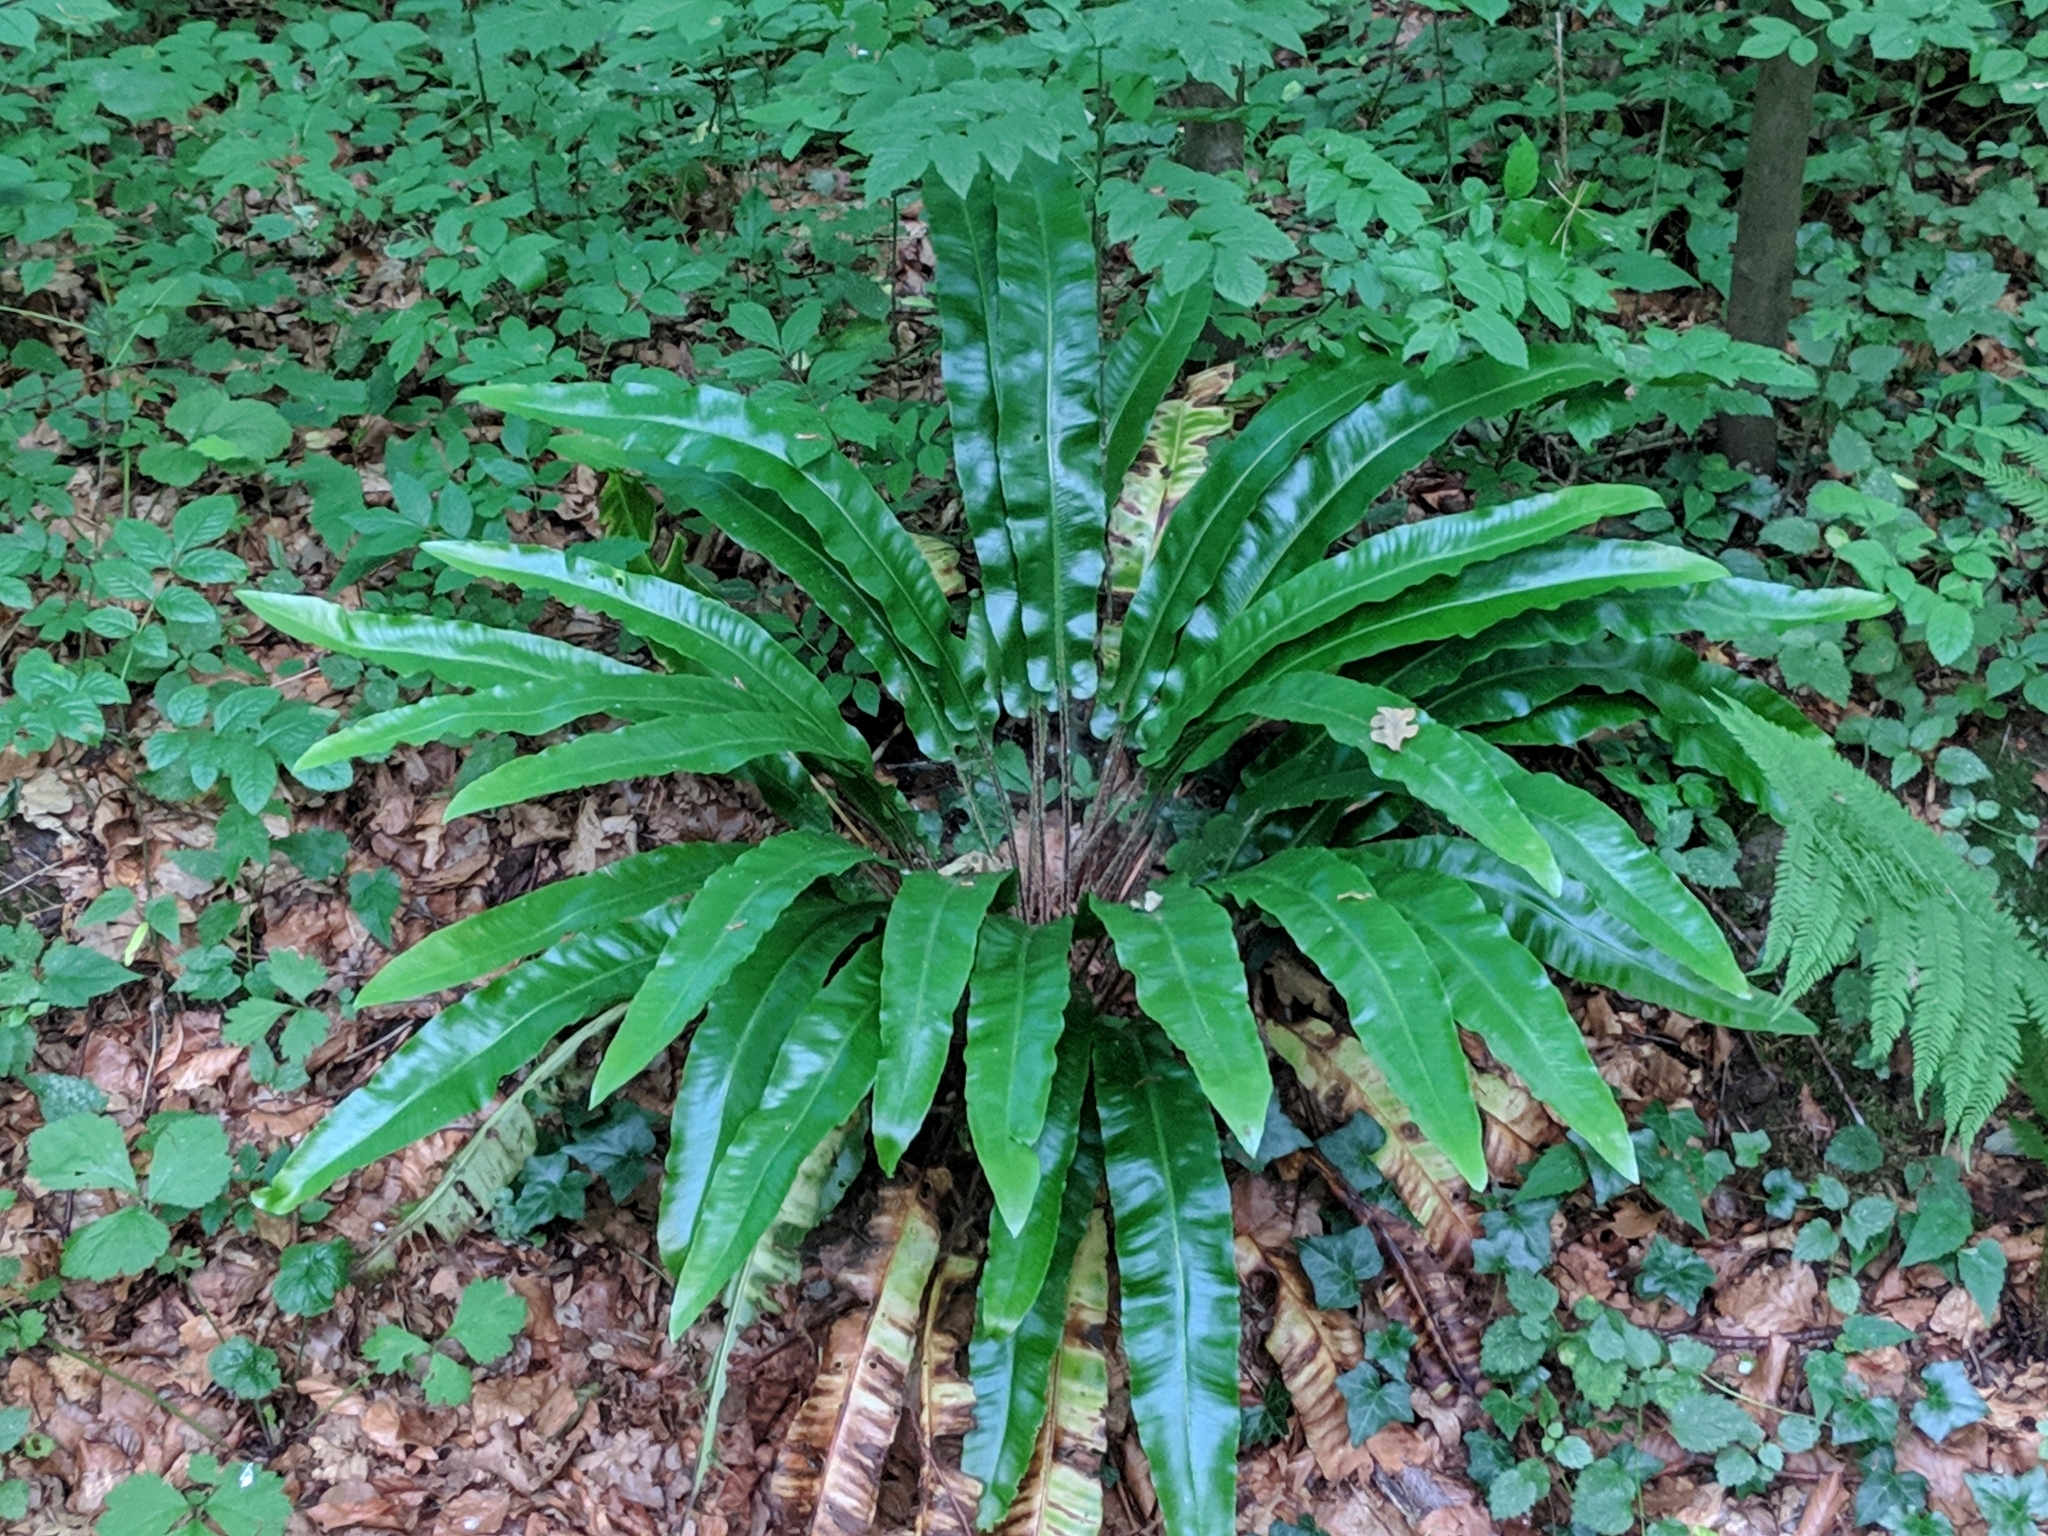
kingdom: Plantae
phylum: Tracheophyta
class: Polypodiopsida
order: Polypodiales
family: Aspleniaceae
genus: Asplenium
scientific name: Asplenium scolopendrium
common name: Hart's-tongue fern
